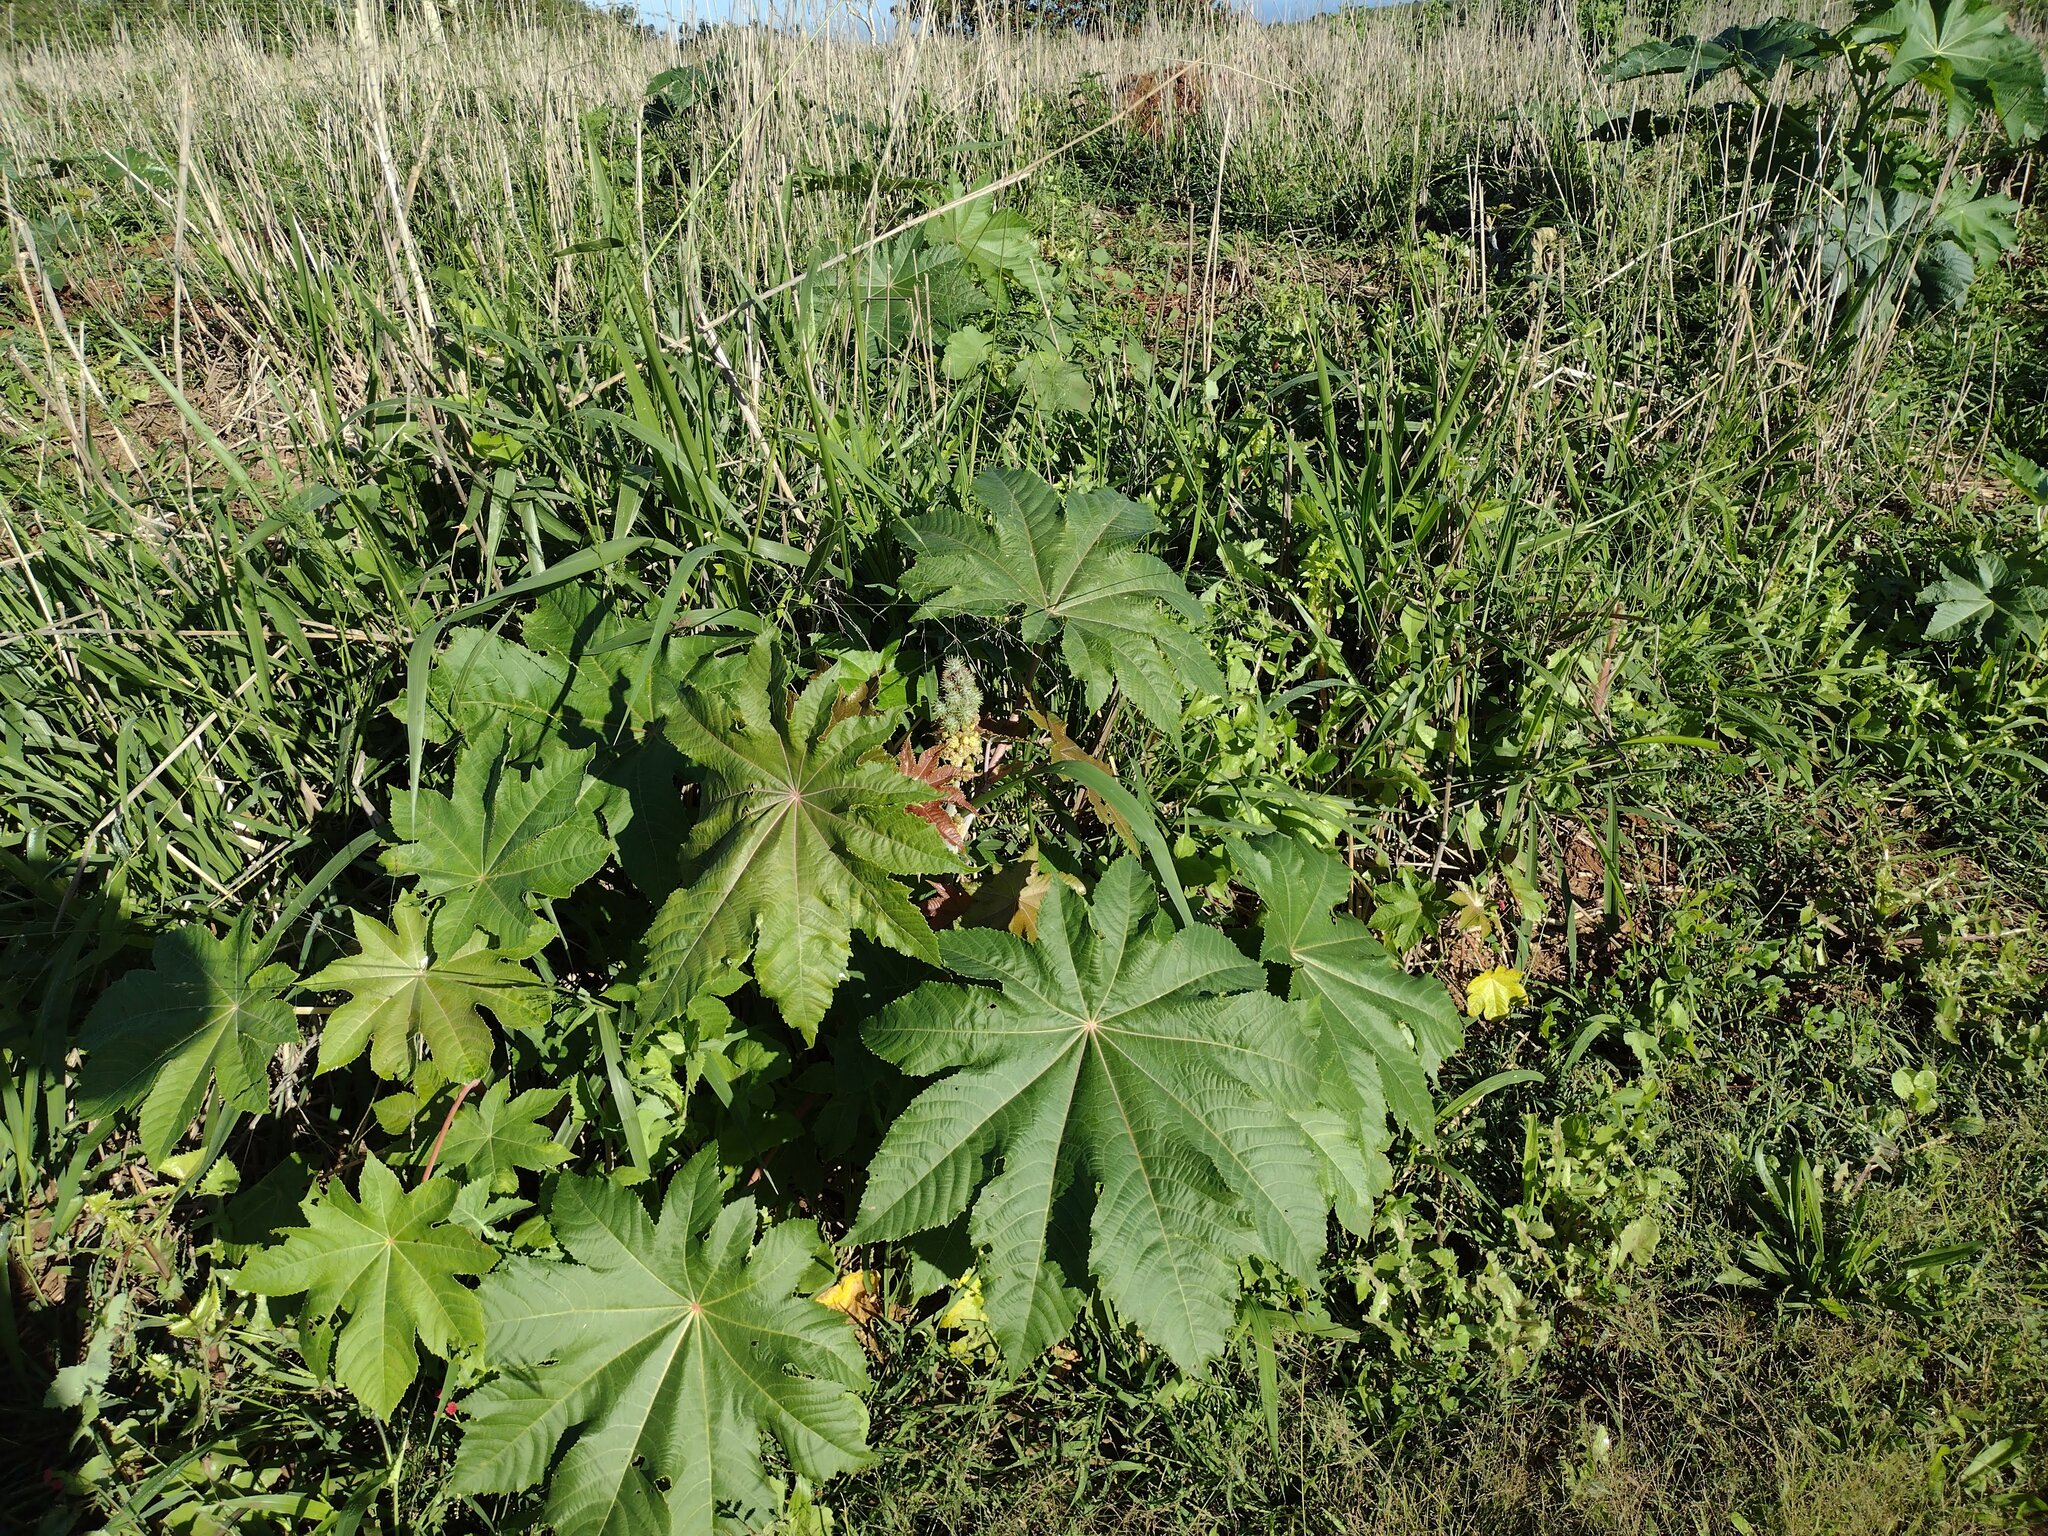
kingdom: Plantae
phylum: Tracheophyta
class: Magnoliopsida
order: Malpighiales
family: Euphorbiaceae
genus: Ricinus
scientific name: Ricinus communis
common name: Castor-oil-plant
